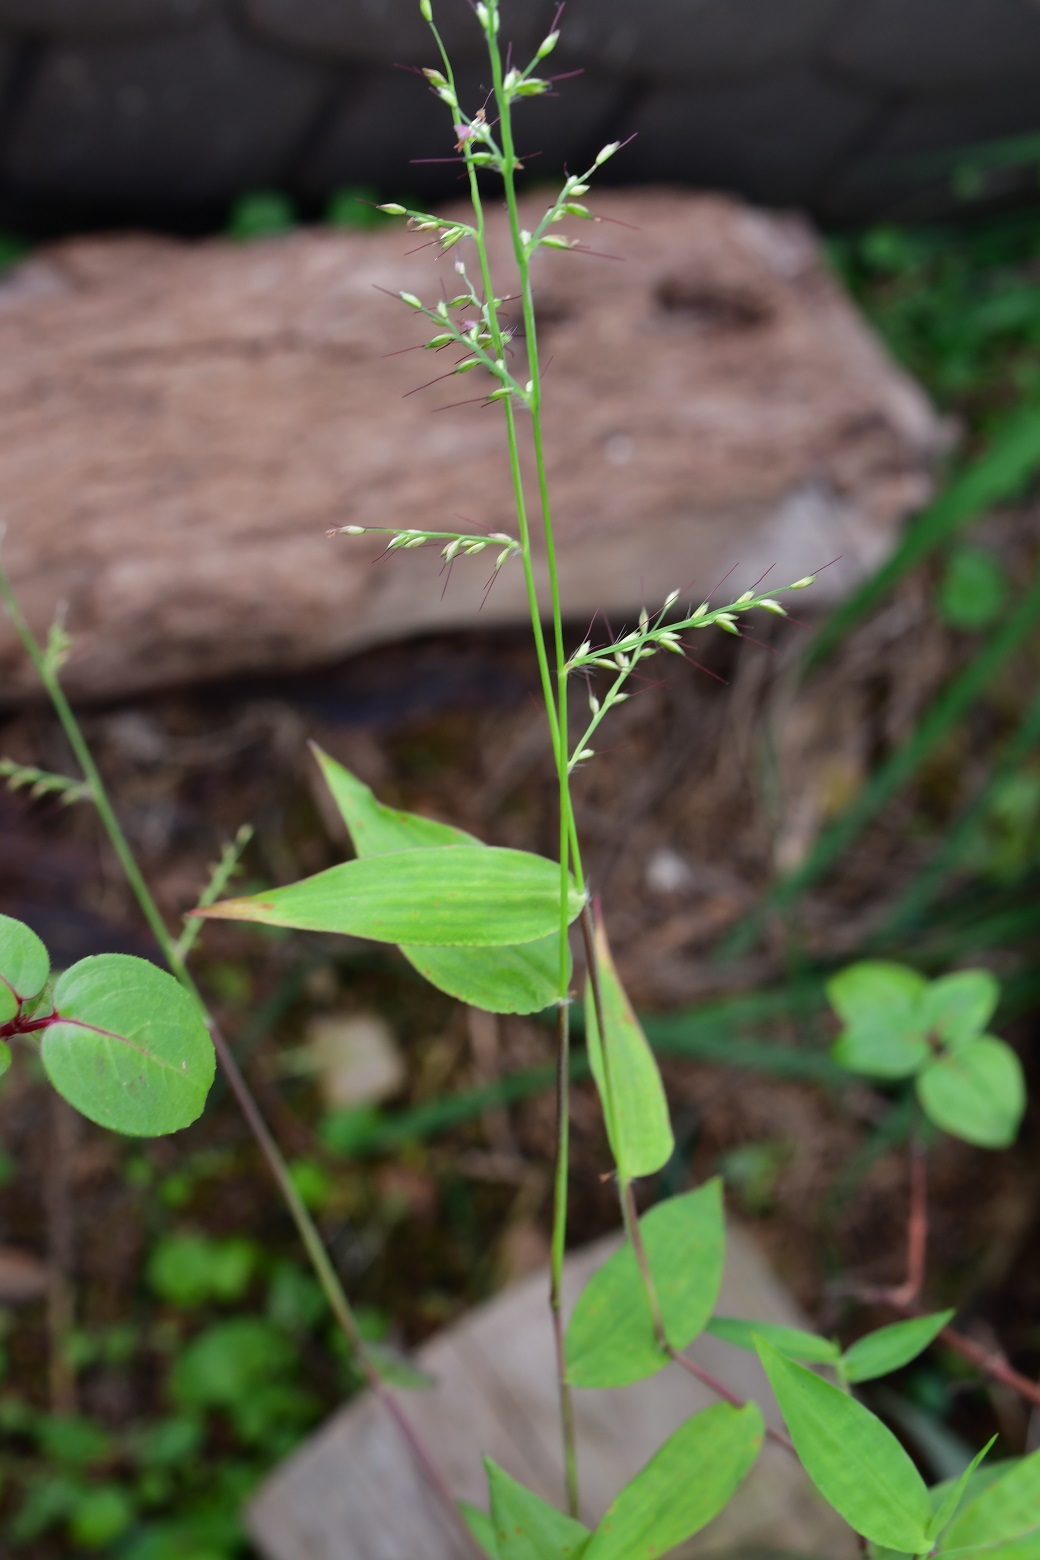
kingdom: Plantae
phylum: Tracheophyta
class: Liliopsida
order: Poales
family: Poaceae
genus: Oplismenus
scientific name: Oplismenus hirtellus
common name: Basketgrass
